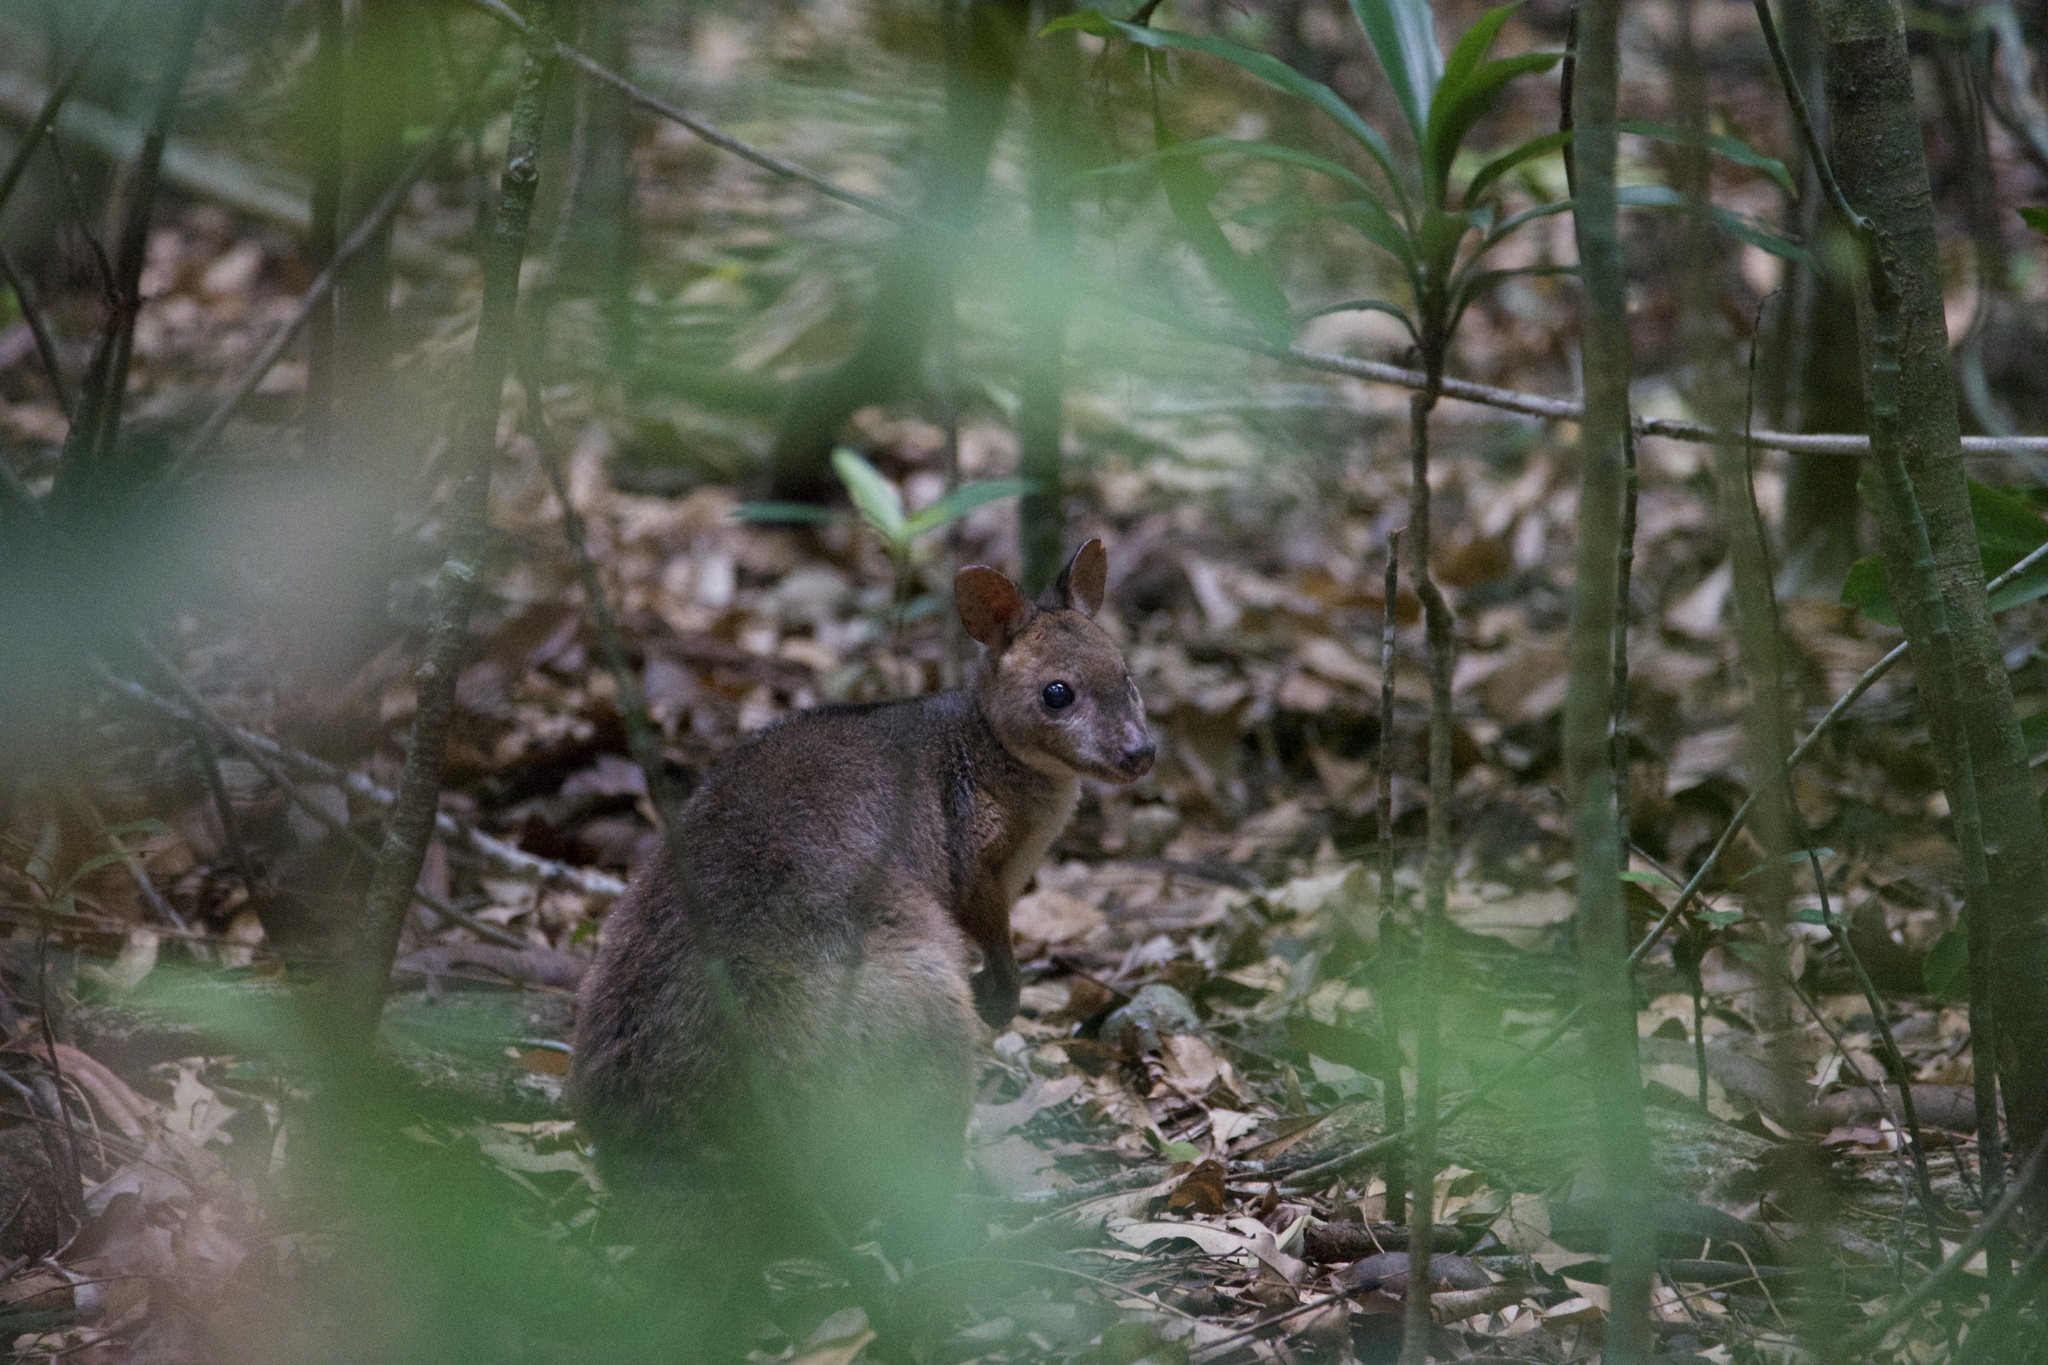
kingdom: Animalia
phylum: Chordata
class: Mammalia
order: Diprotodontia
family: Macropodidae
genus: Thylogale
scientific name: Thylogale stigmatica
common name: Red-legged pademelon
